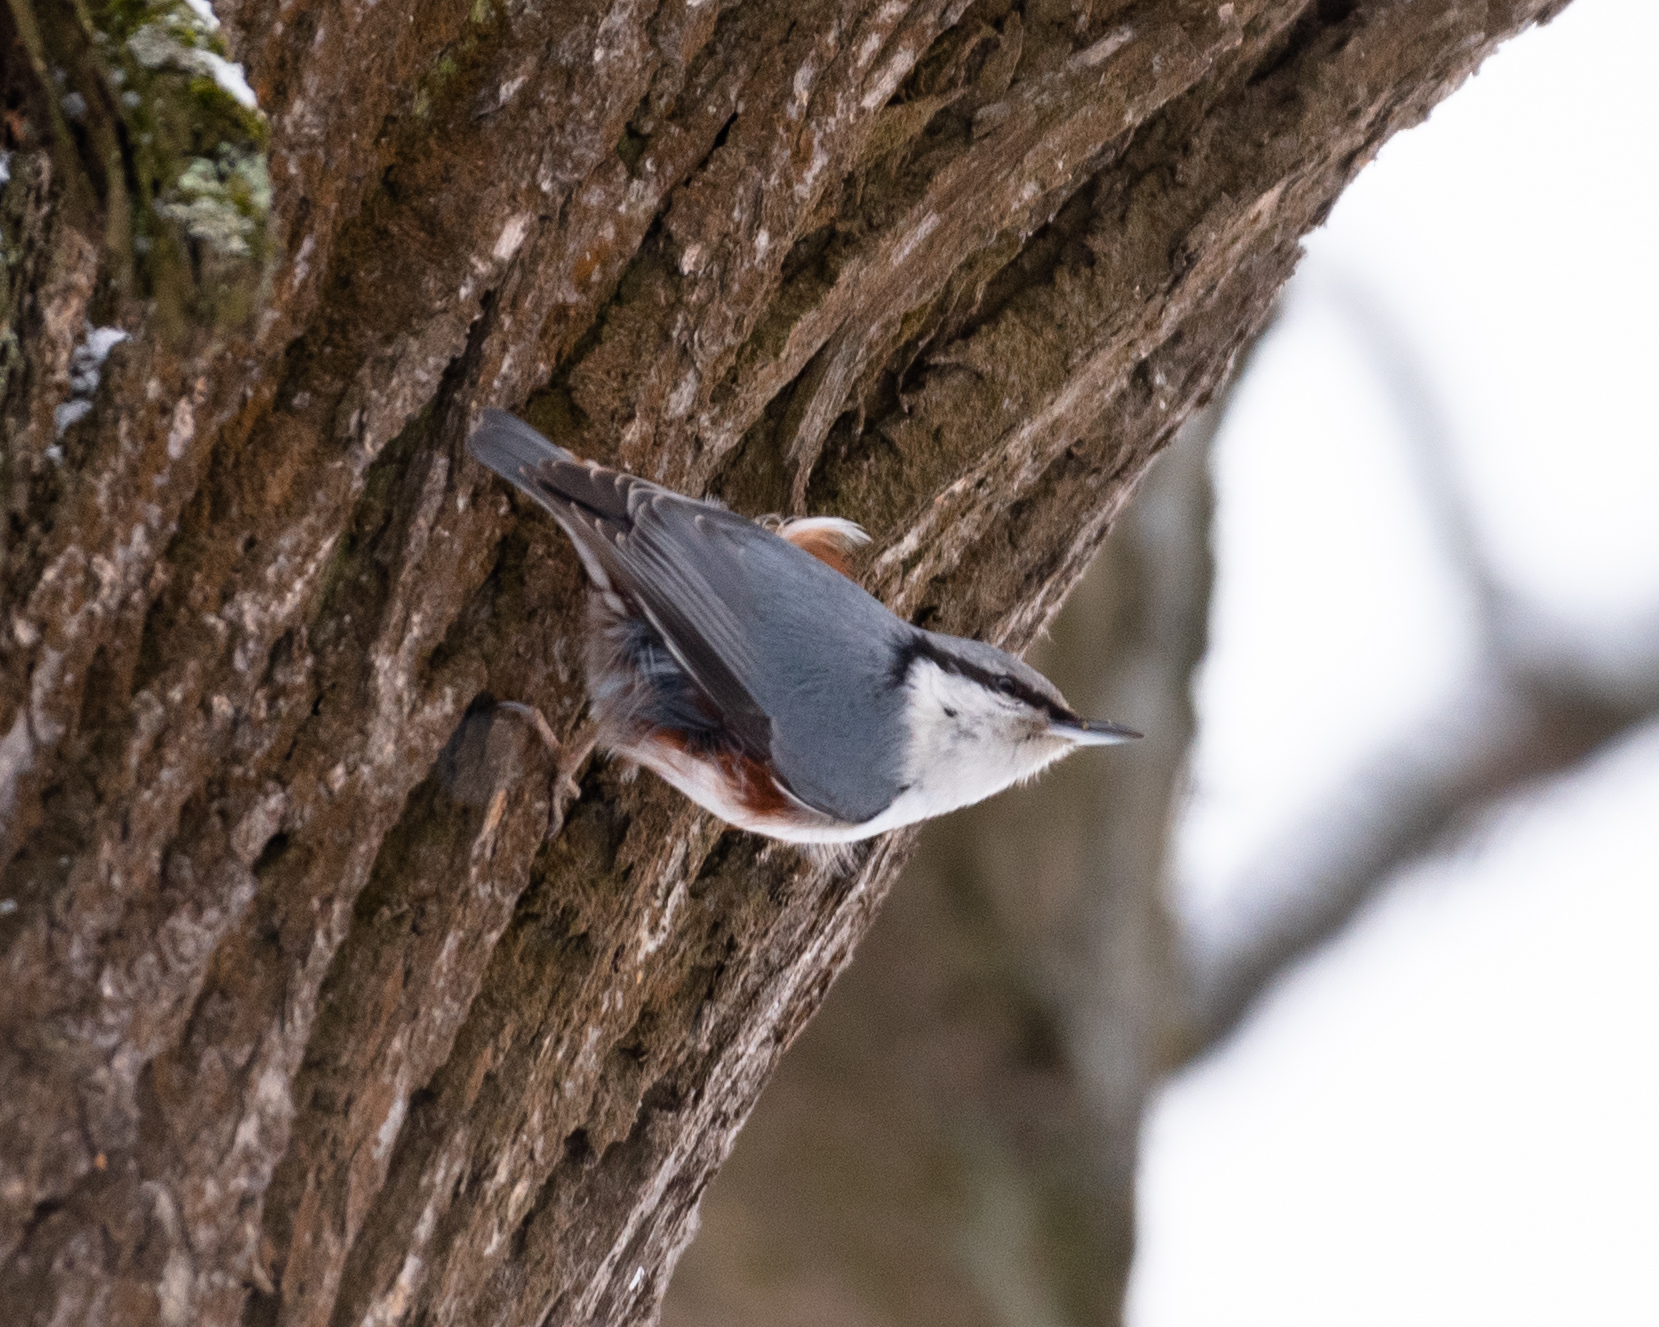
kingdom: Animalia
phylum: Chordata
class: Aves
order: Passeriformes
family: Sittidae
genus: Sitta
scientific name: Sitta europaea
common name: Eurasian nuthatch
